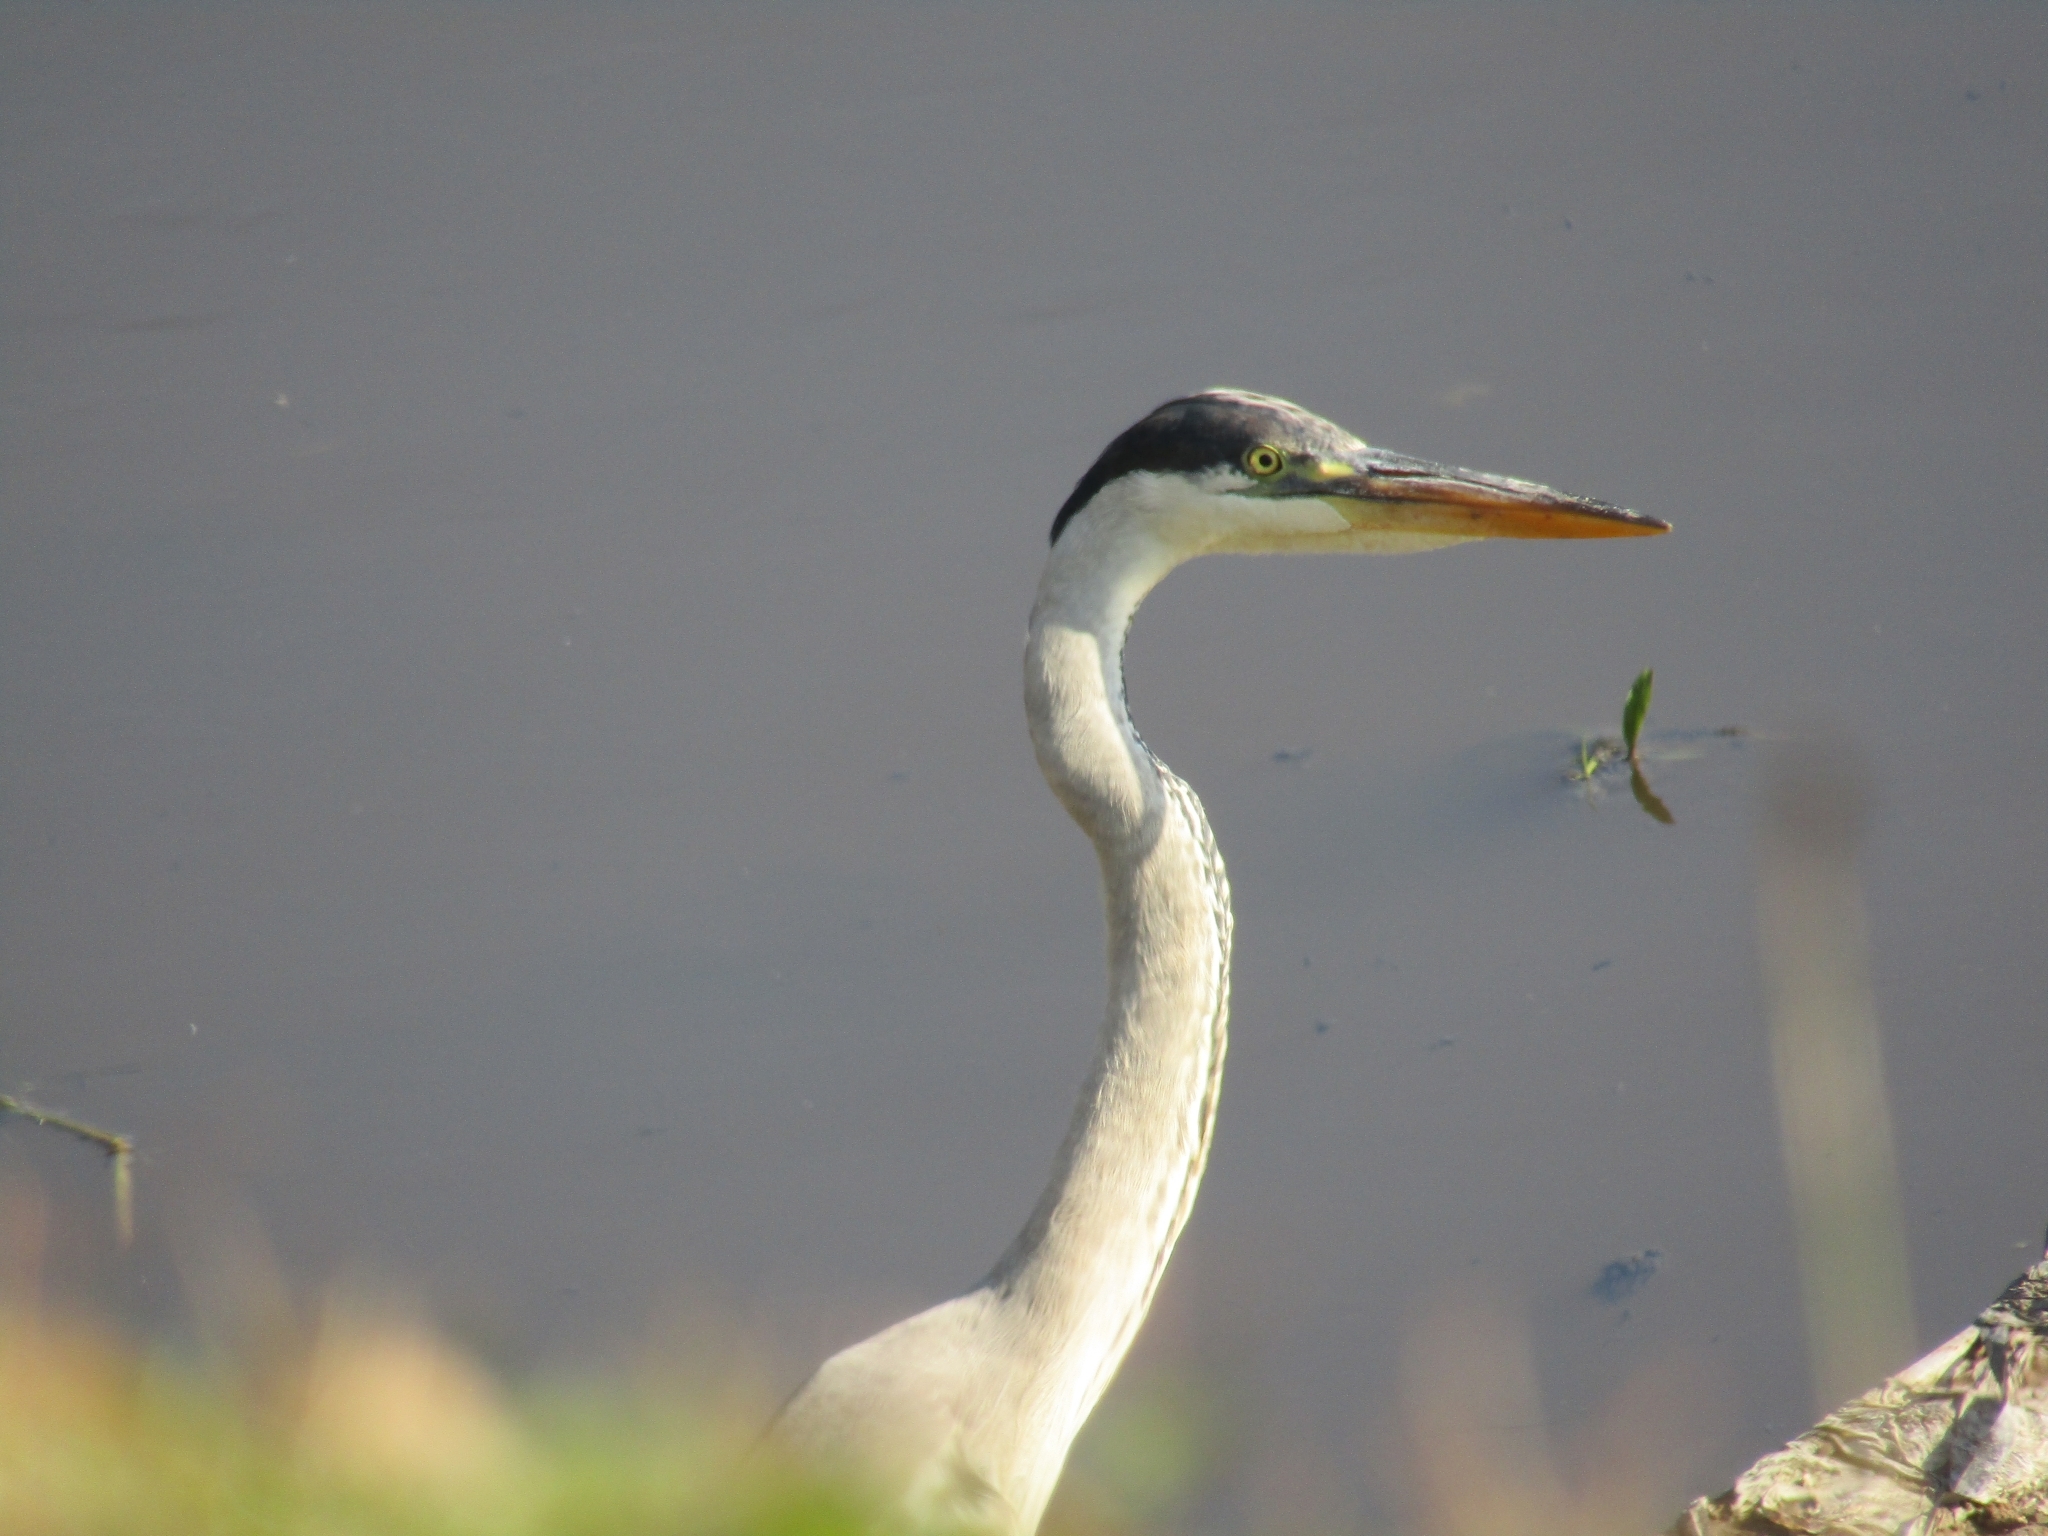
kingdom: Animalia
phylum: Chordata
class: Aves
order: Pelecaniformes
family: Ardeidae
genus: Ardea
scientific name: Ardea cocoi
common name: Cocoi heron
